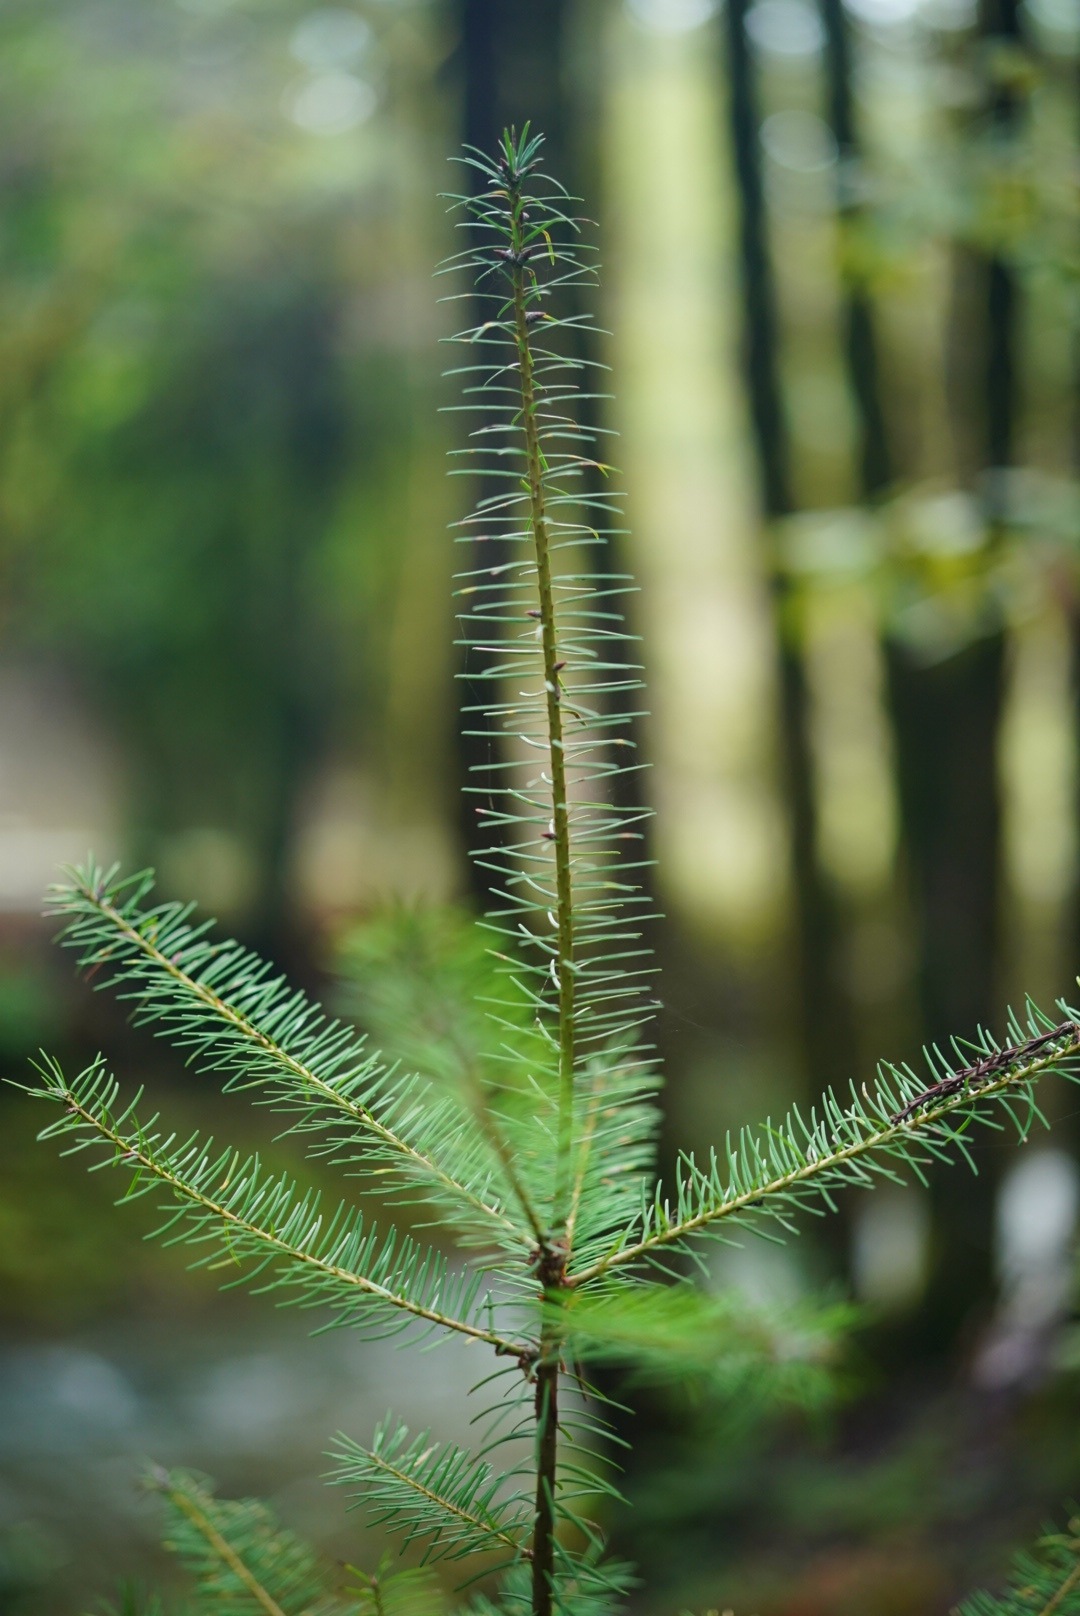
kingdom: Plantae
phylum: Tracheophyta
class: Pinopsida
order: Pinales
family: Pinaceae
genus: Pseudotsuga
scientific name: Pseudotsuga menziesii
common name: Douglas fir
